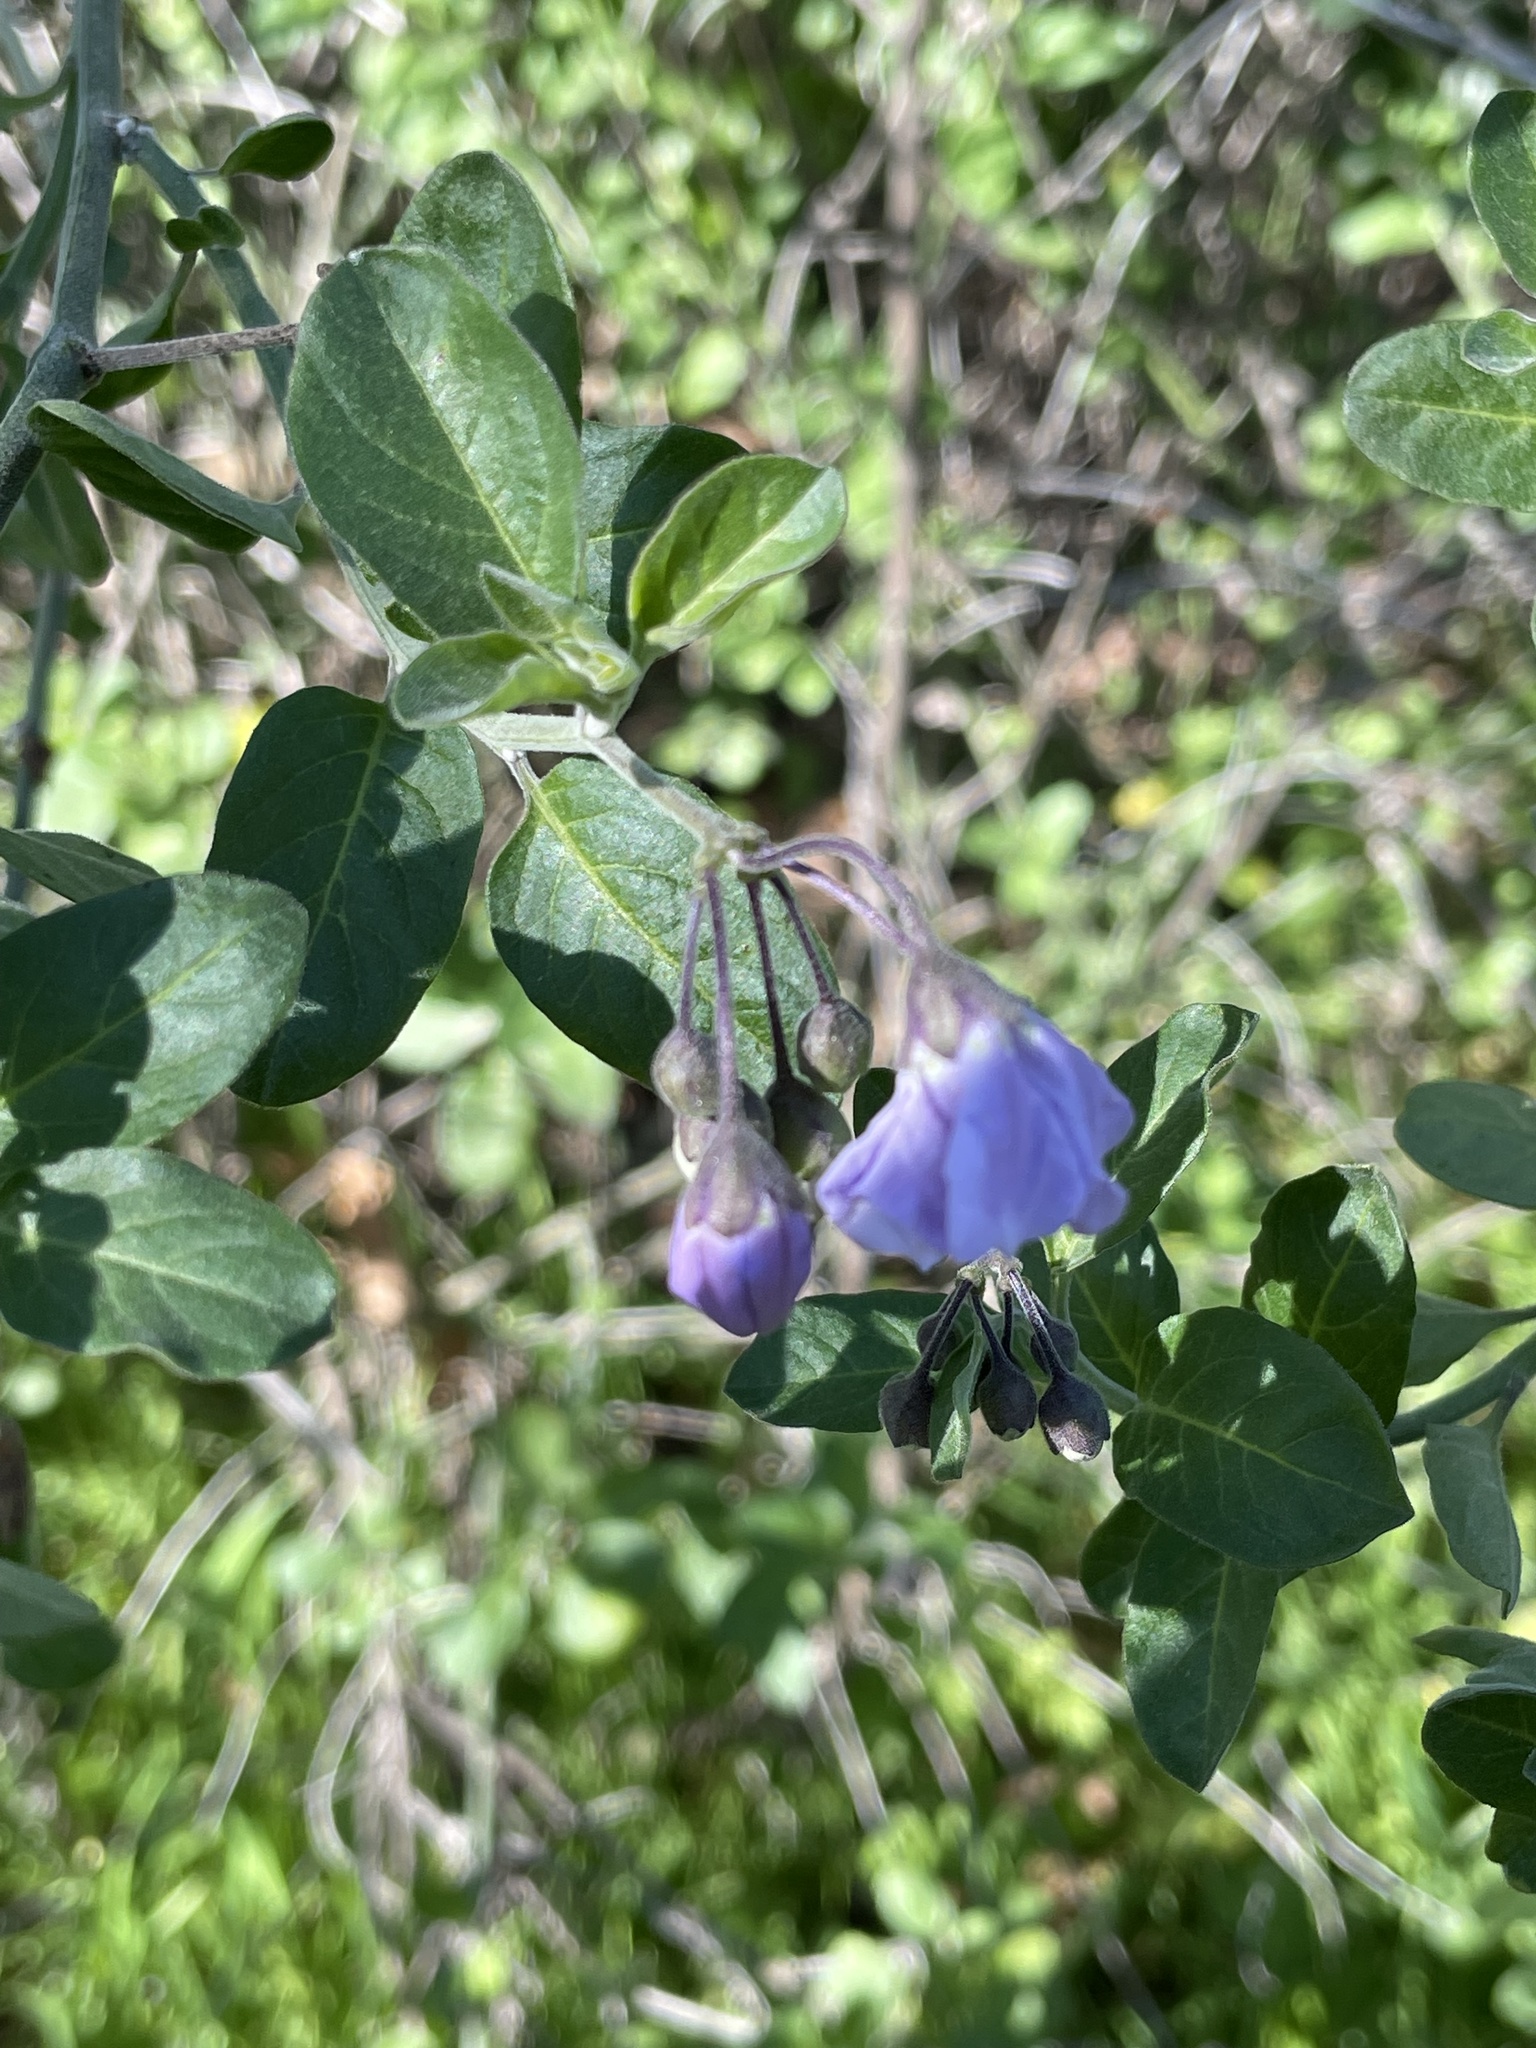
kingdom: Plantae
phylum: Tracheophyta
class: Magnoliopsida
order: Solanales
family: Solanaceae
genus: Solanum
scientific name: Solanum umbelliferum
